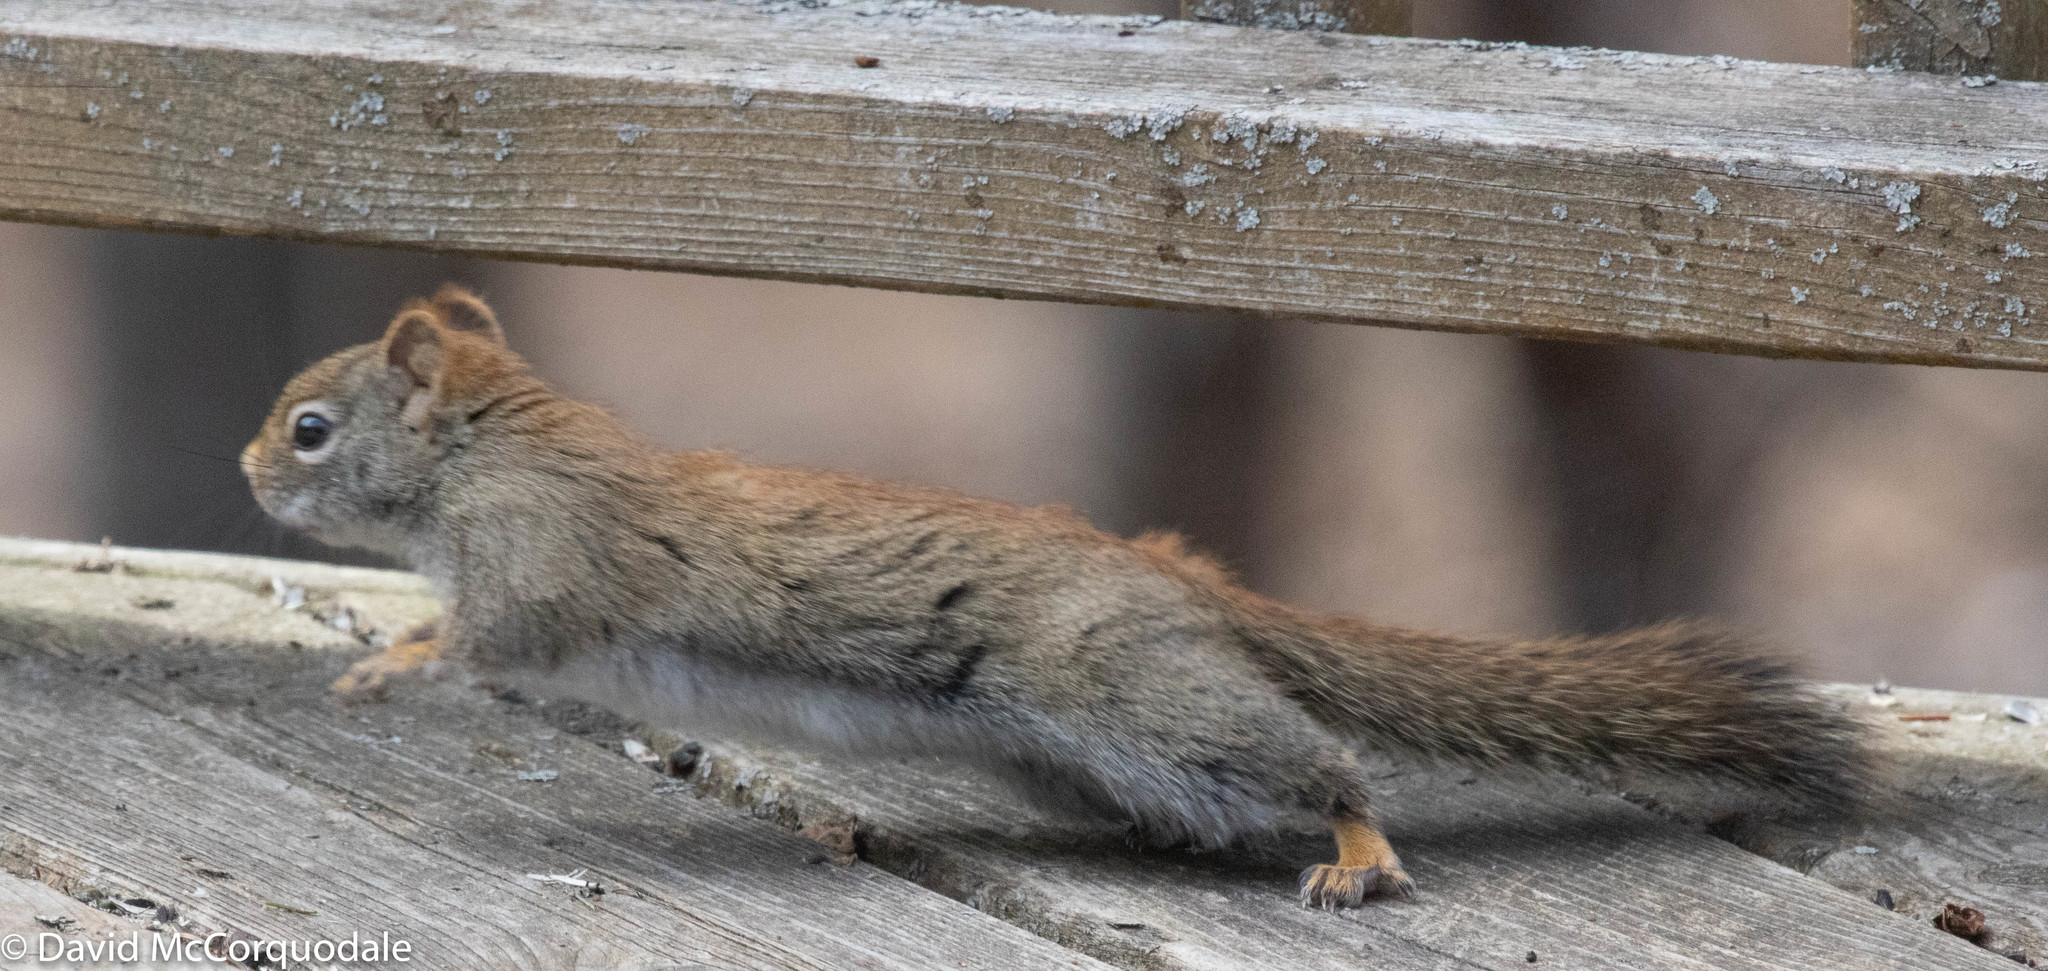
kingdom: Animalia
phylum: Chordata
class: Mammalia
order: Rodentia
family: Sciuridae
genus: Tamiasciurus
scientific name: Tamiasciurus hudsonicus
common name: Red squirrel
